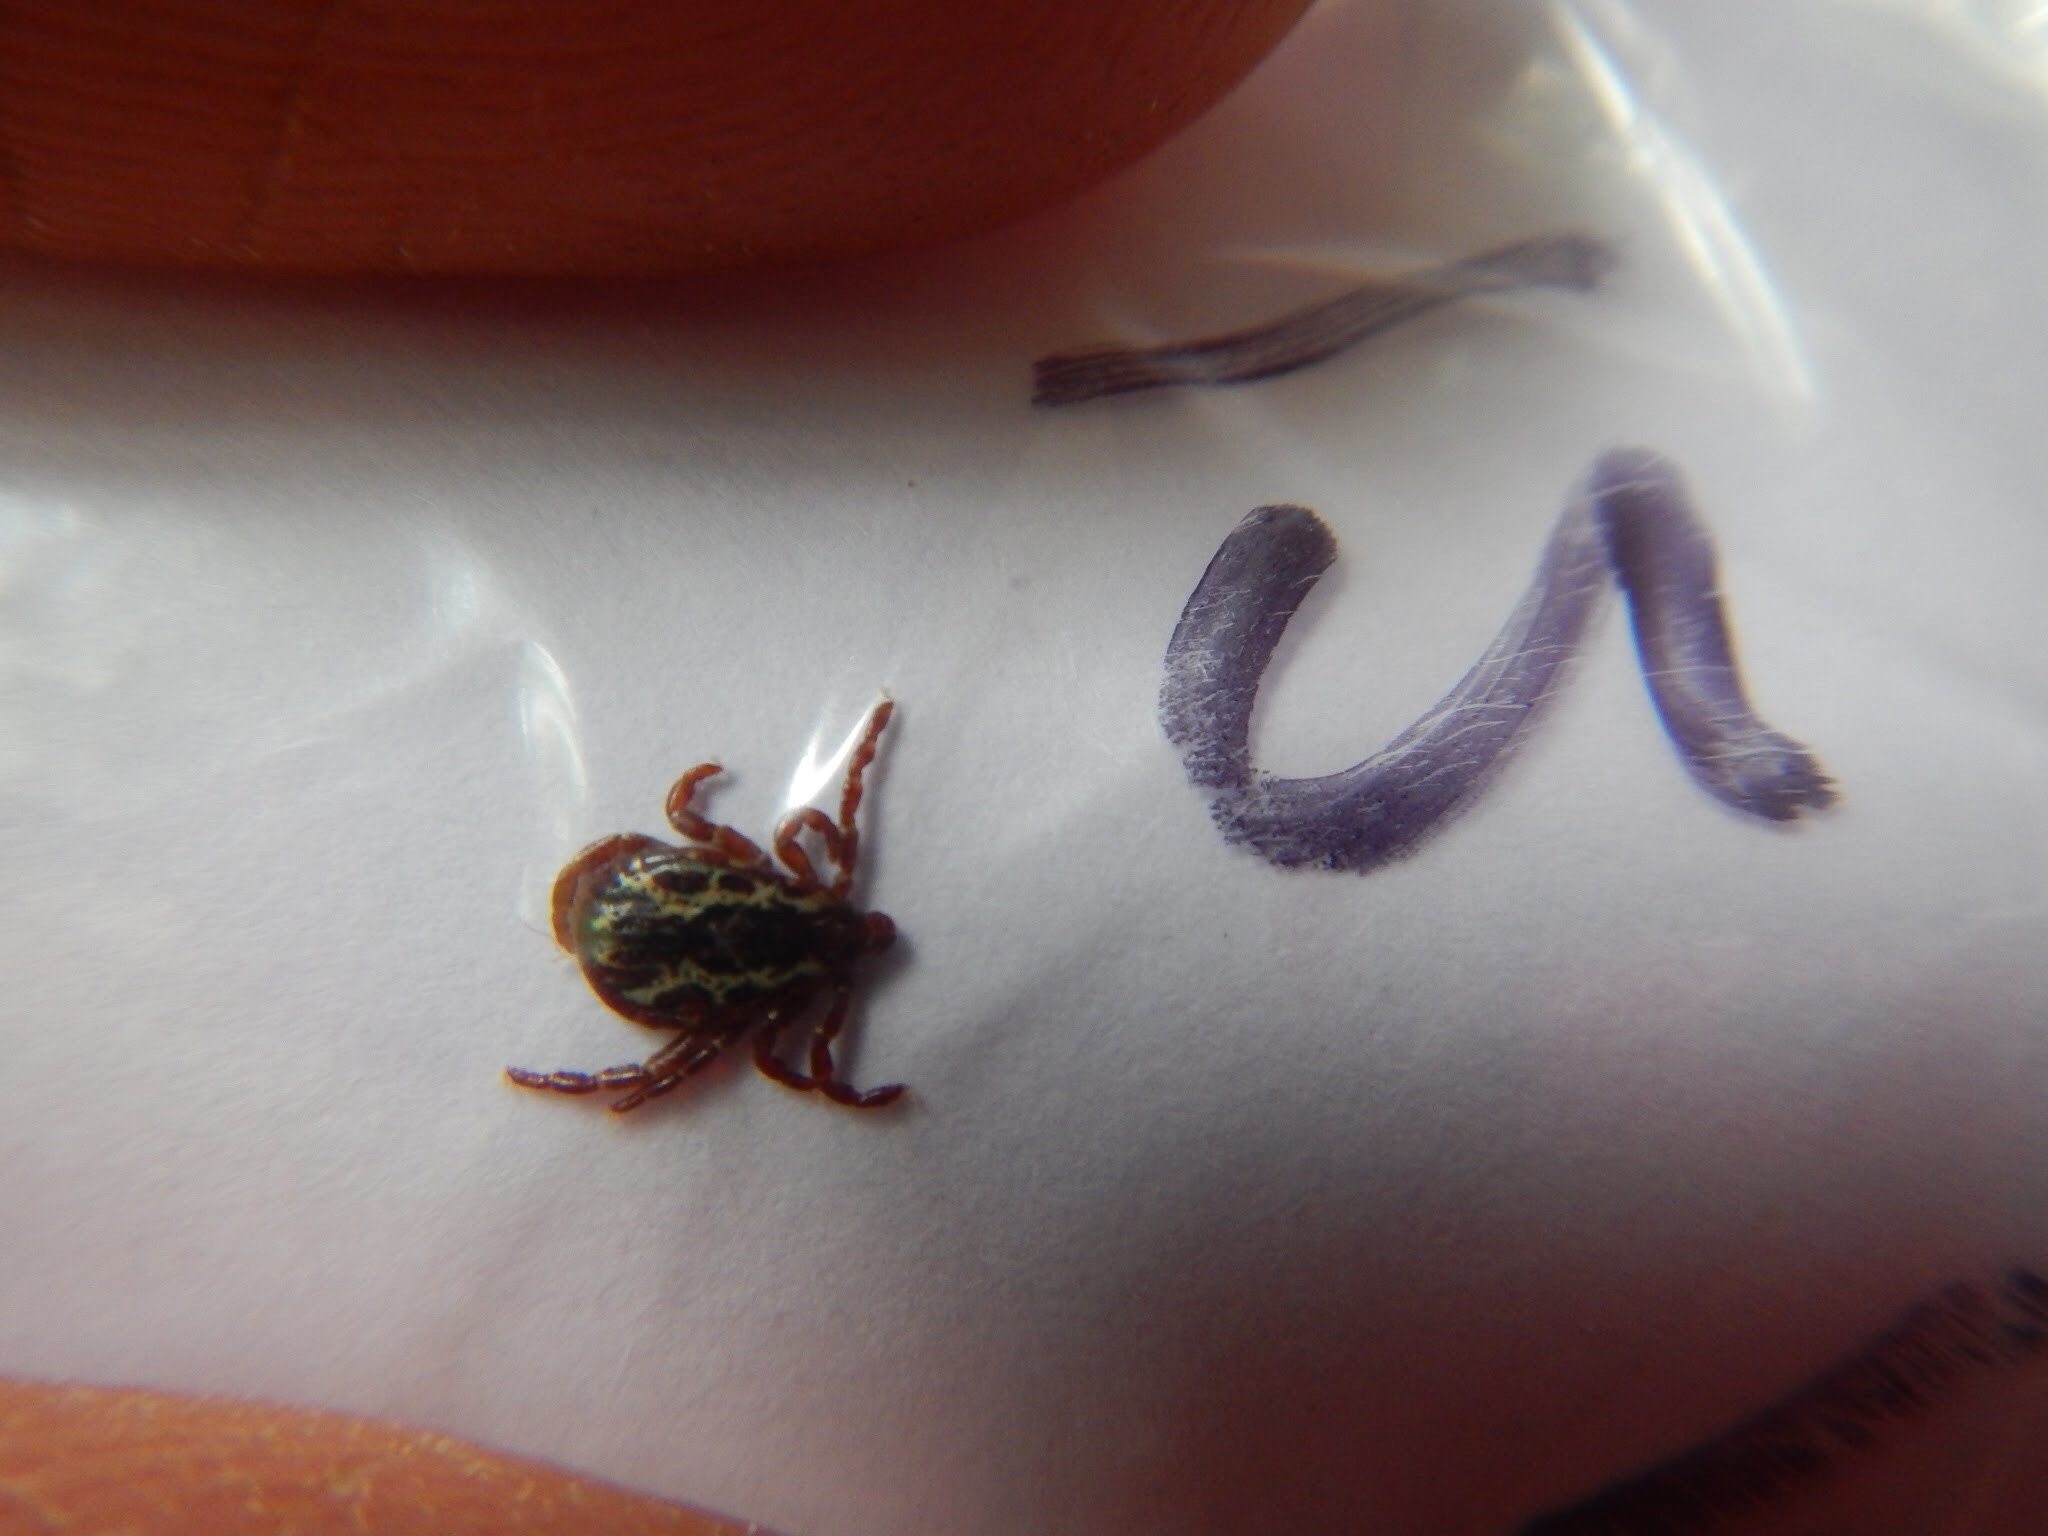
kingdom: Animalia
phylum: Arthropoda
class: Arachnida
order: Ixodida
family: Ixodidae
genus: Dermacentor
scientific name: Dermacentor variabilis
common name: American dog tick
